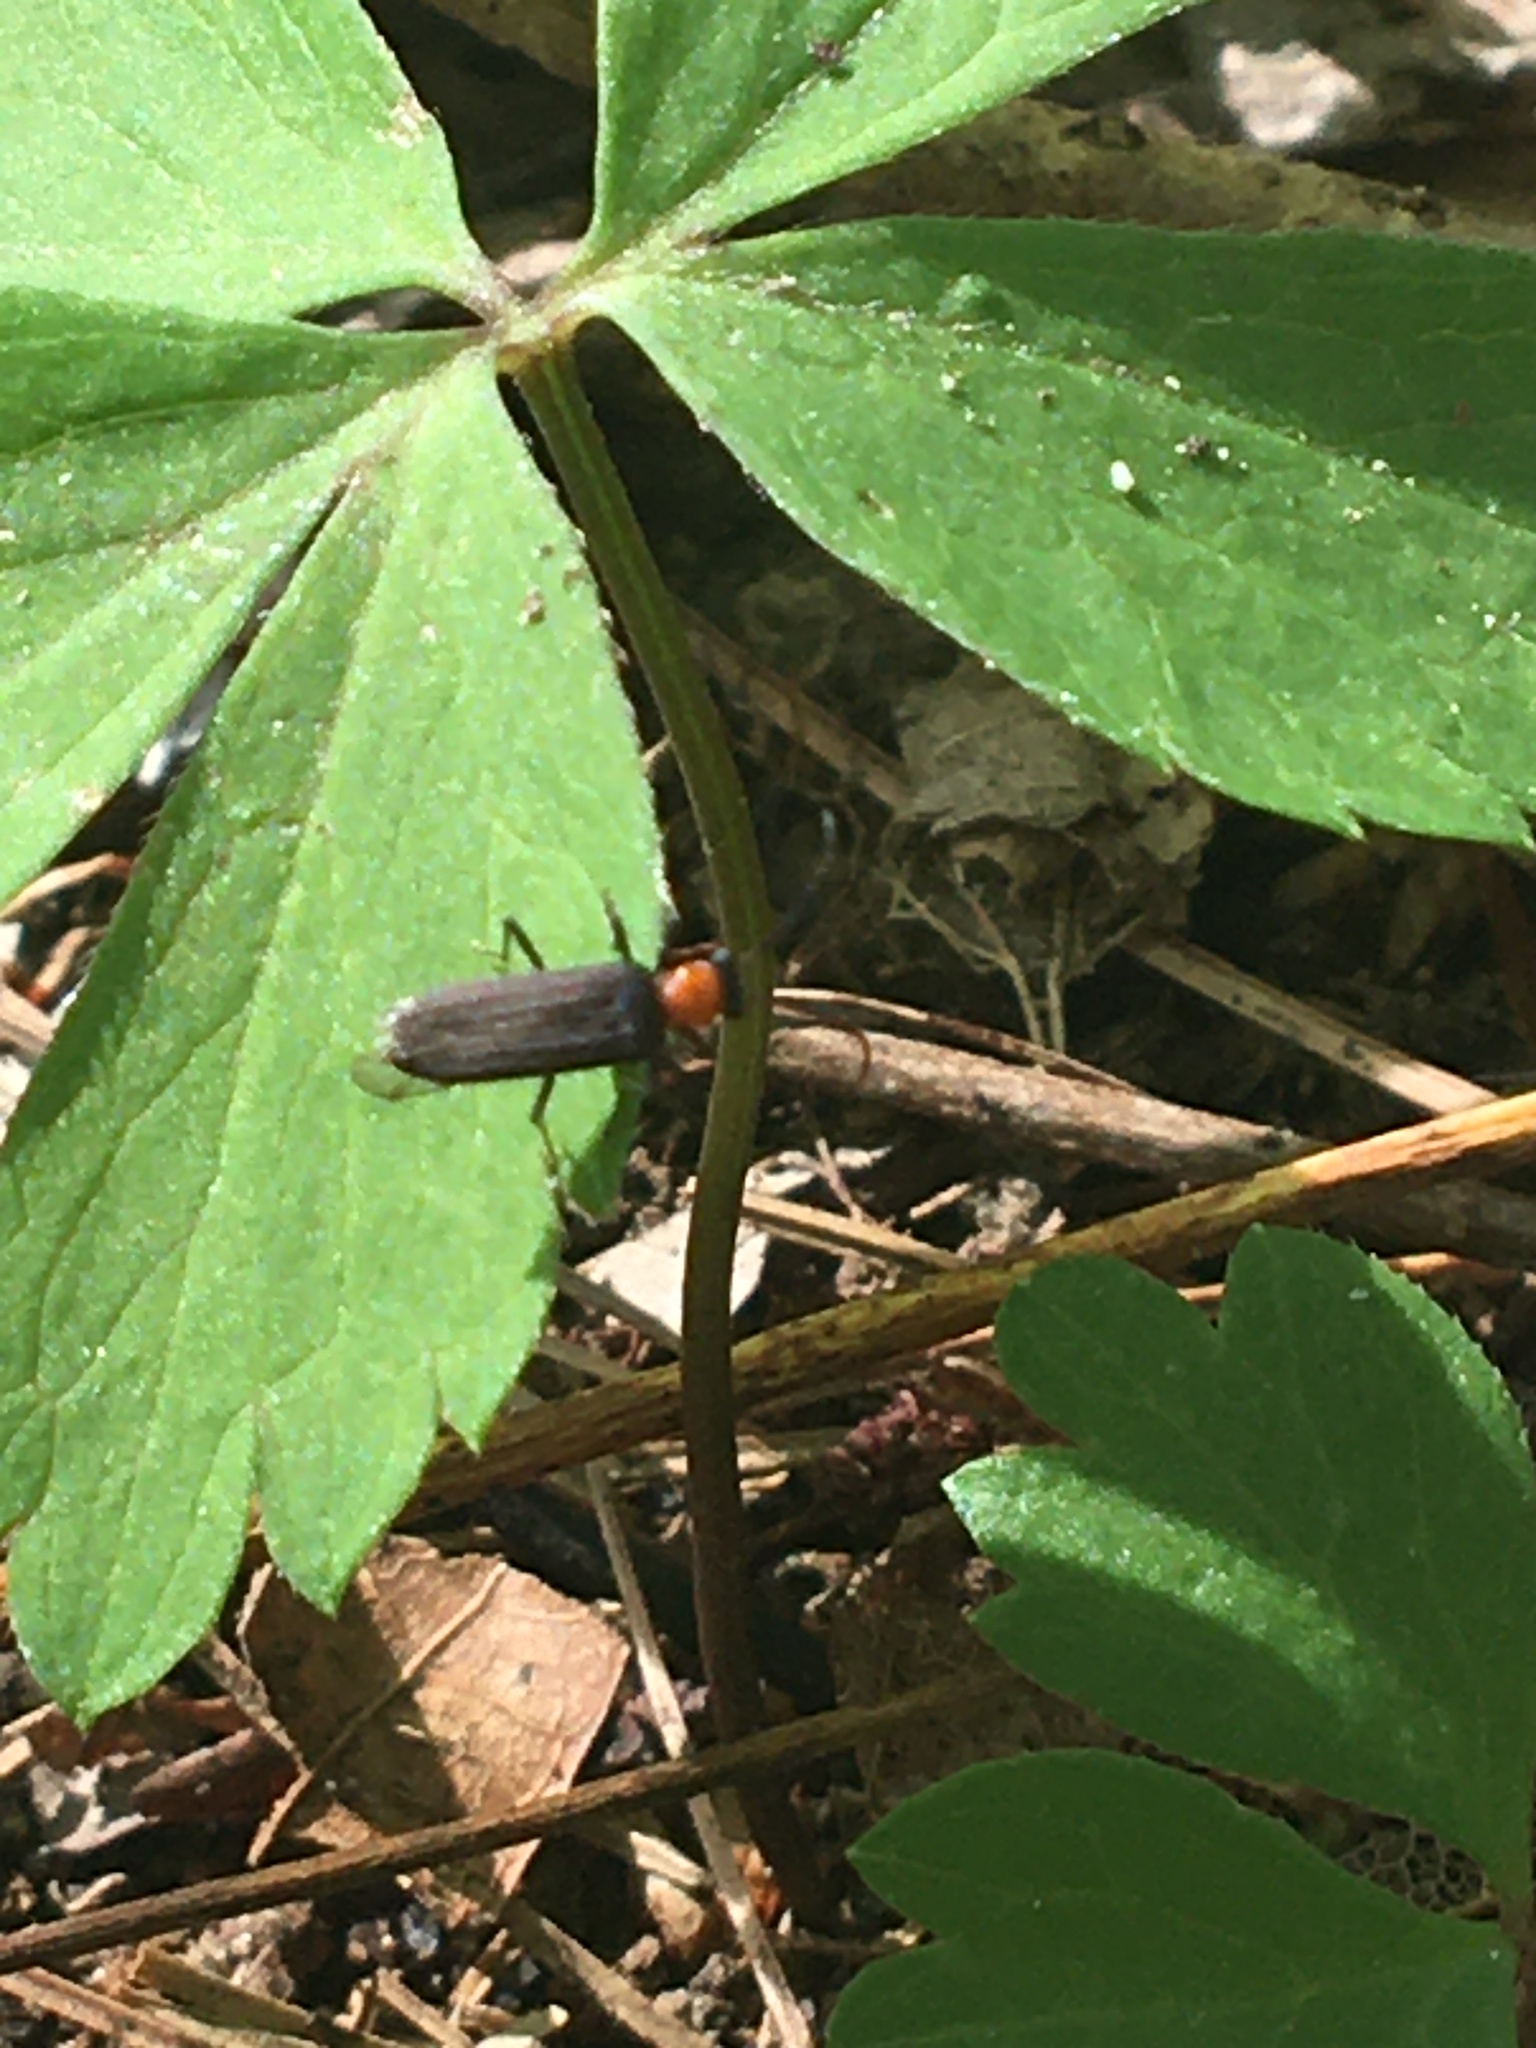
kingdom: Animalia
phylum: Arthropoda
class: Insecta
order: Coleoptera
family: Oedemeridae
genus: Ischnomera
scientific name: Ischnomera
